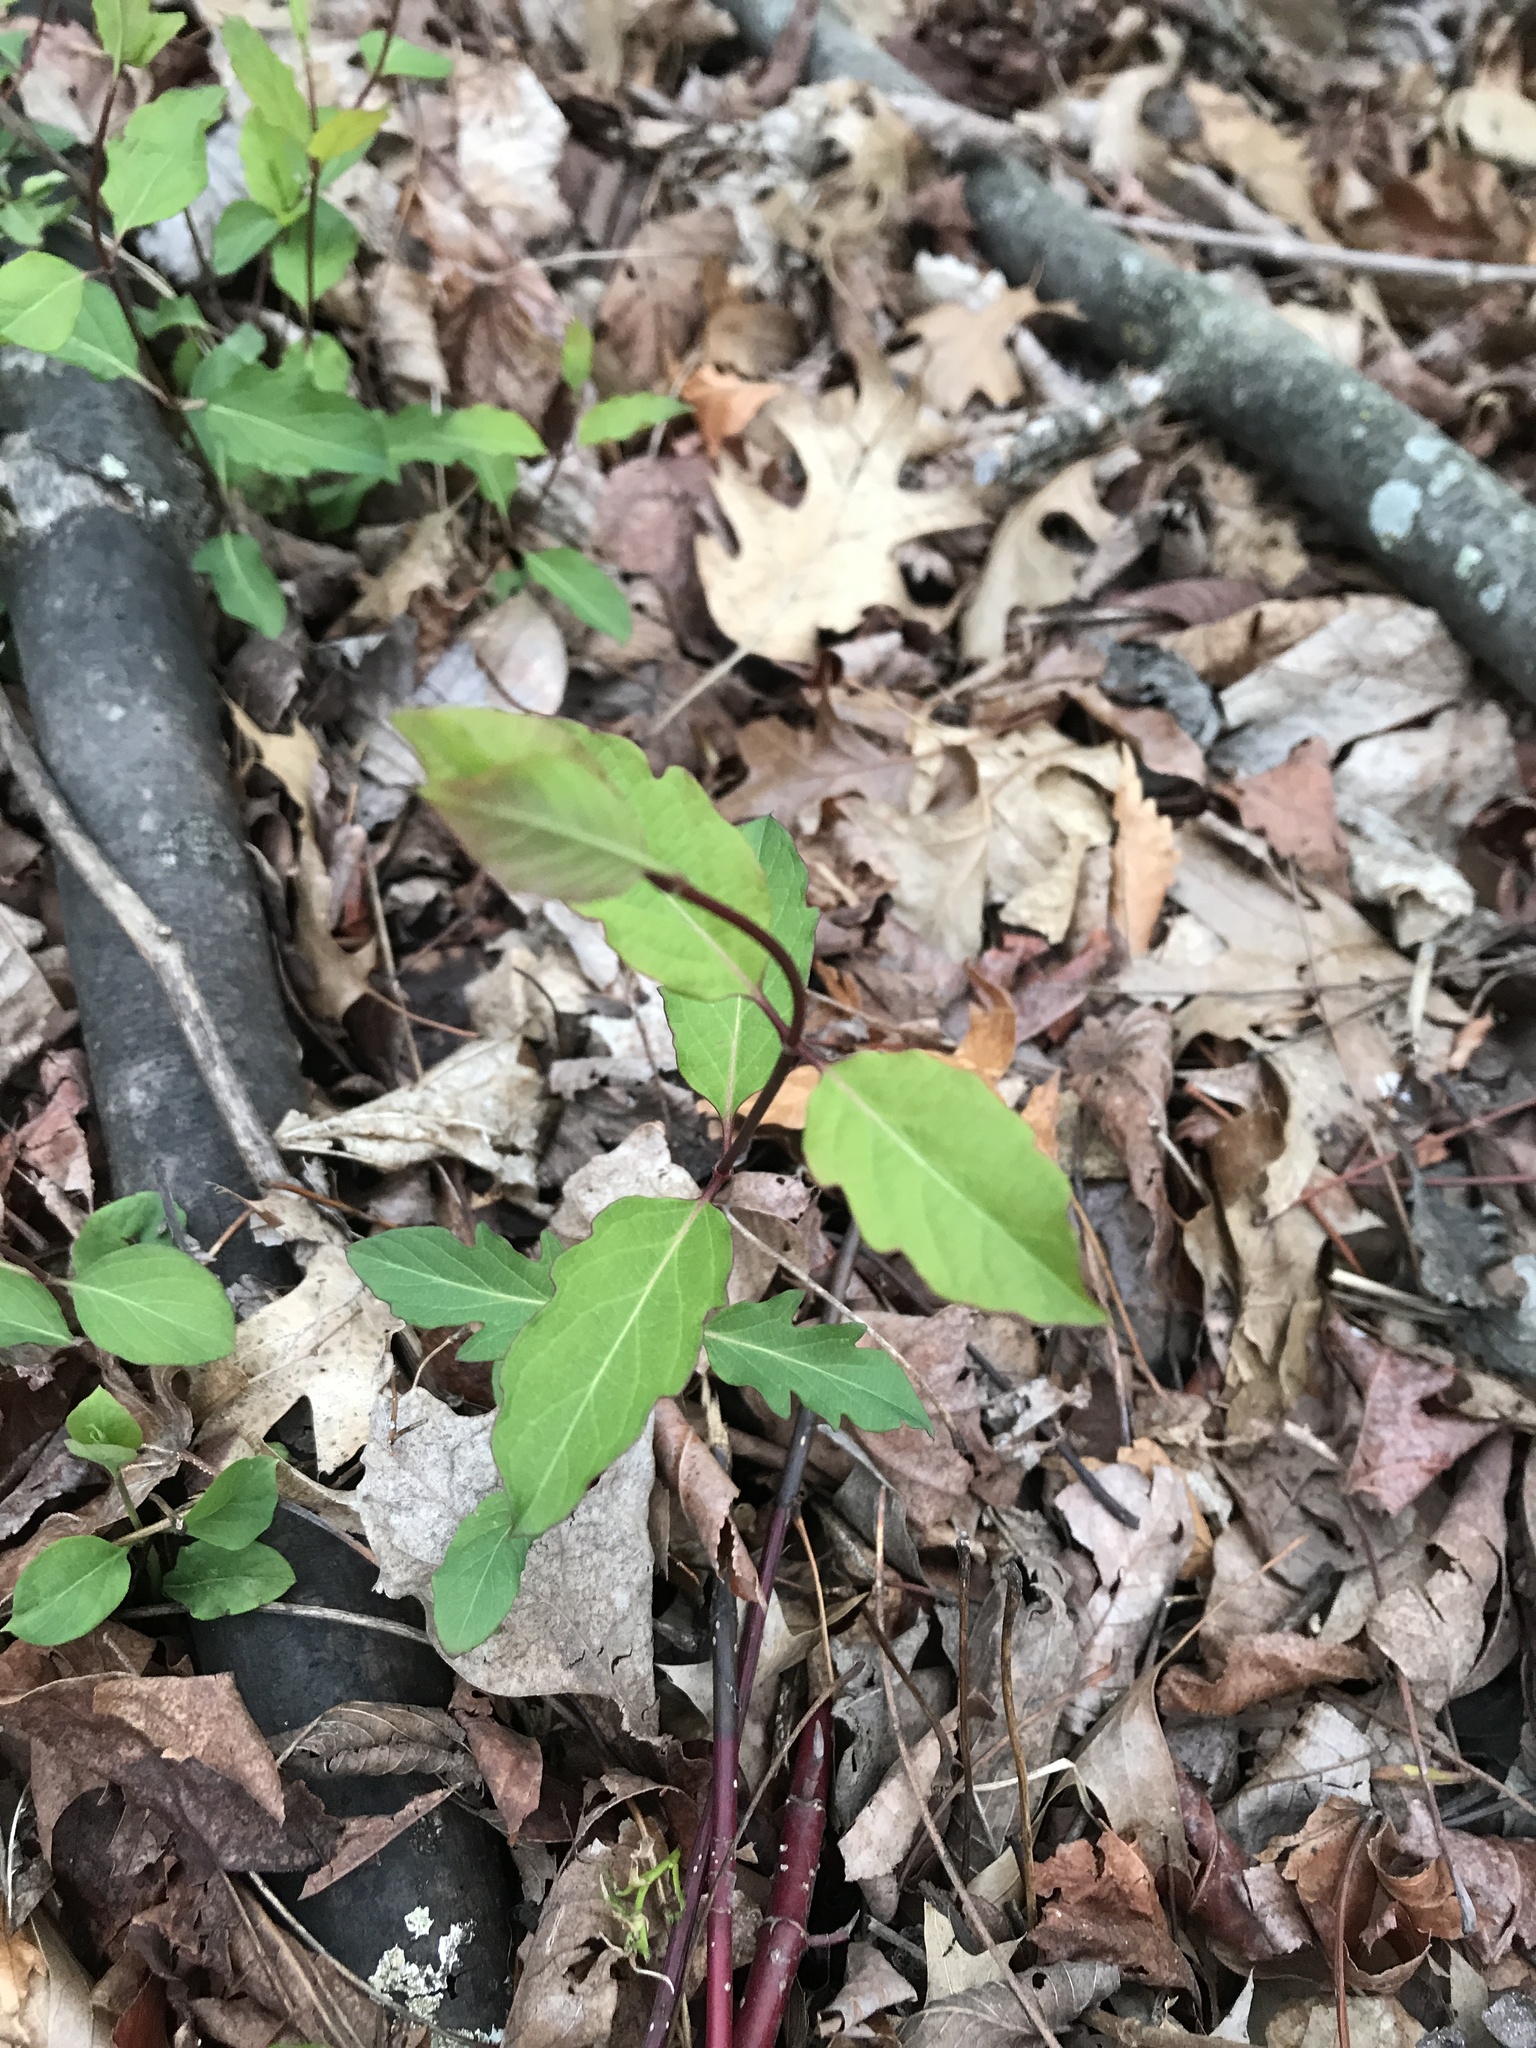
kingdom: Plantae
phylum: Tracheophyta
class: Magnoliopsida
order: Dipsacales
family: Caprifoliaceae
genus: Lonicera
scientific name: Lonicera japonica
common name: Japanese honeysuckle
